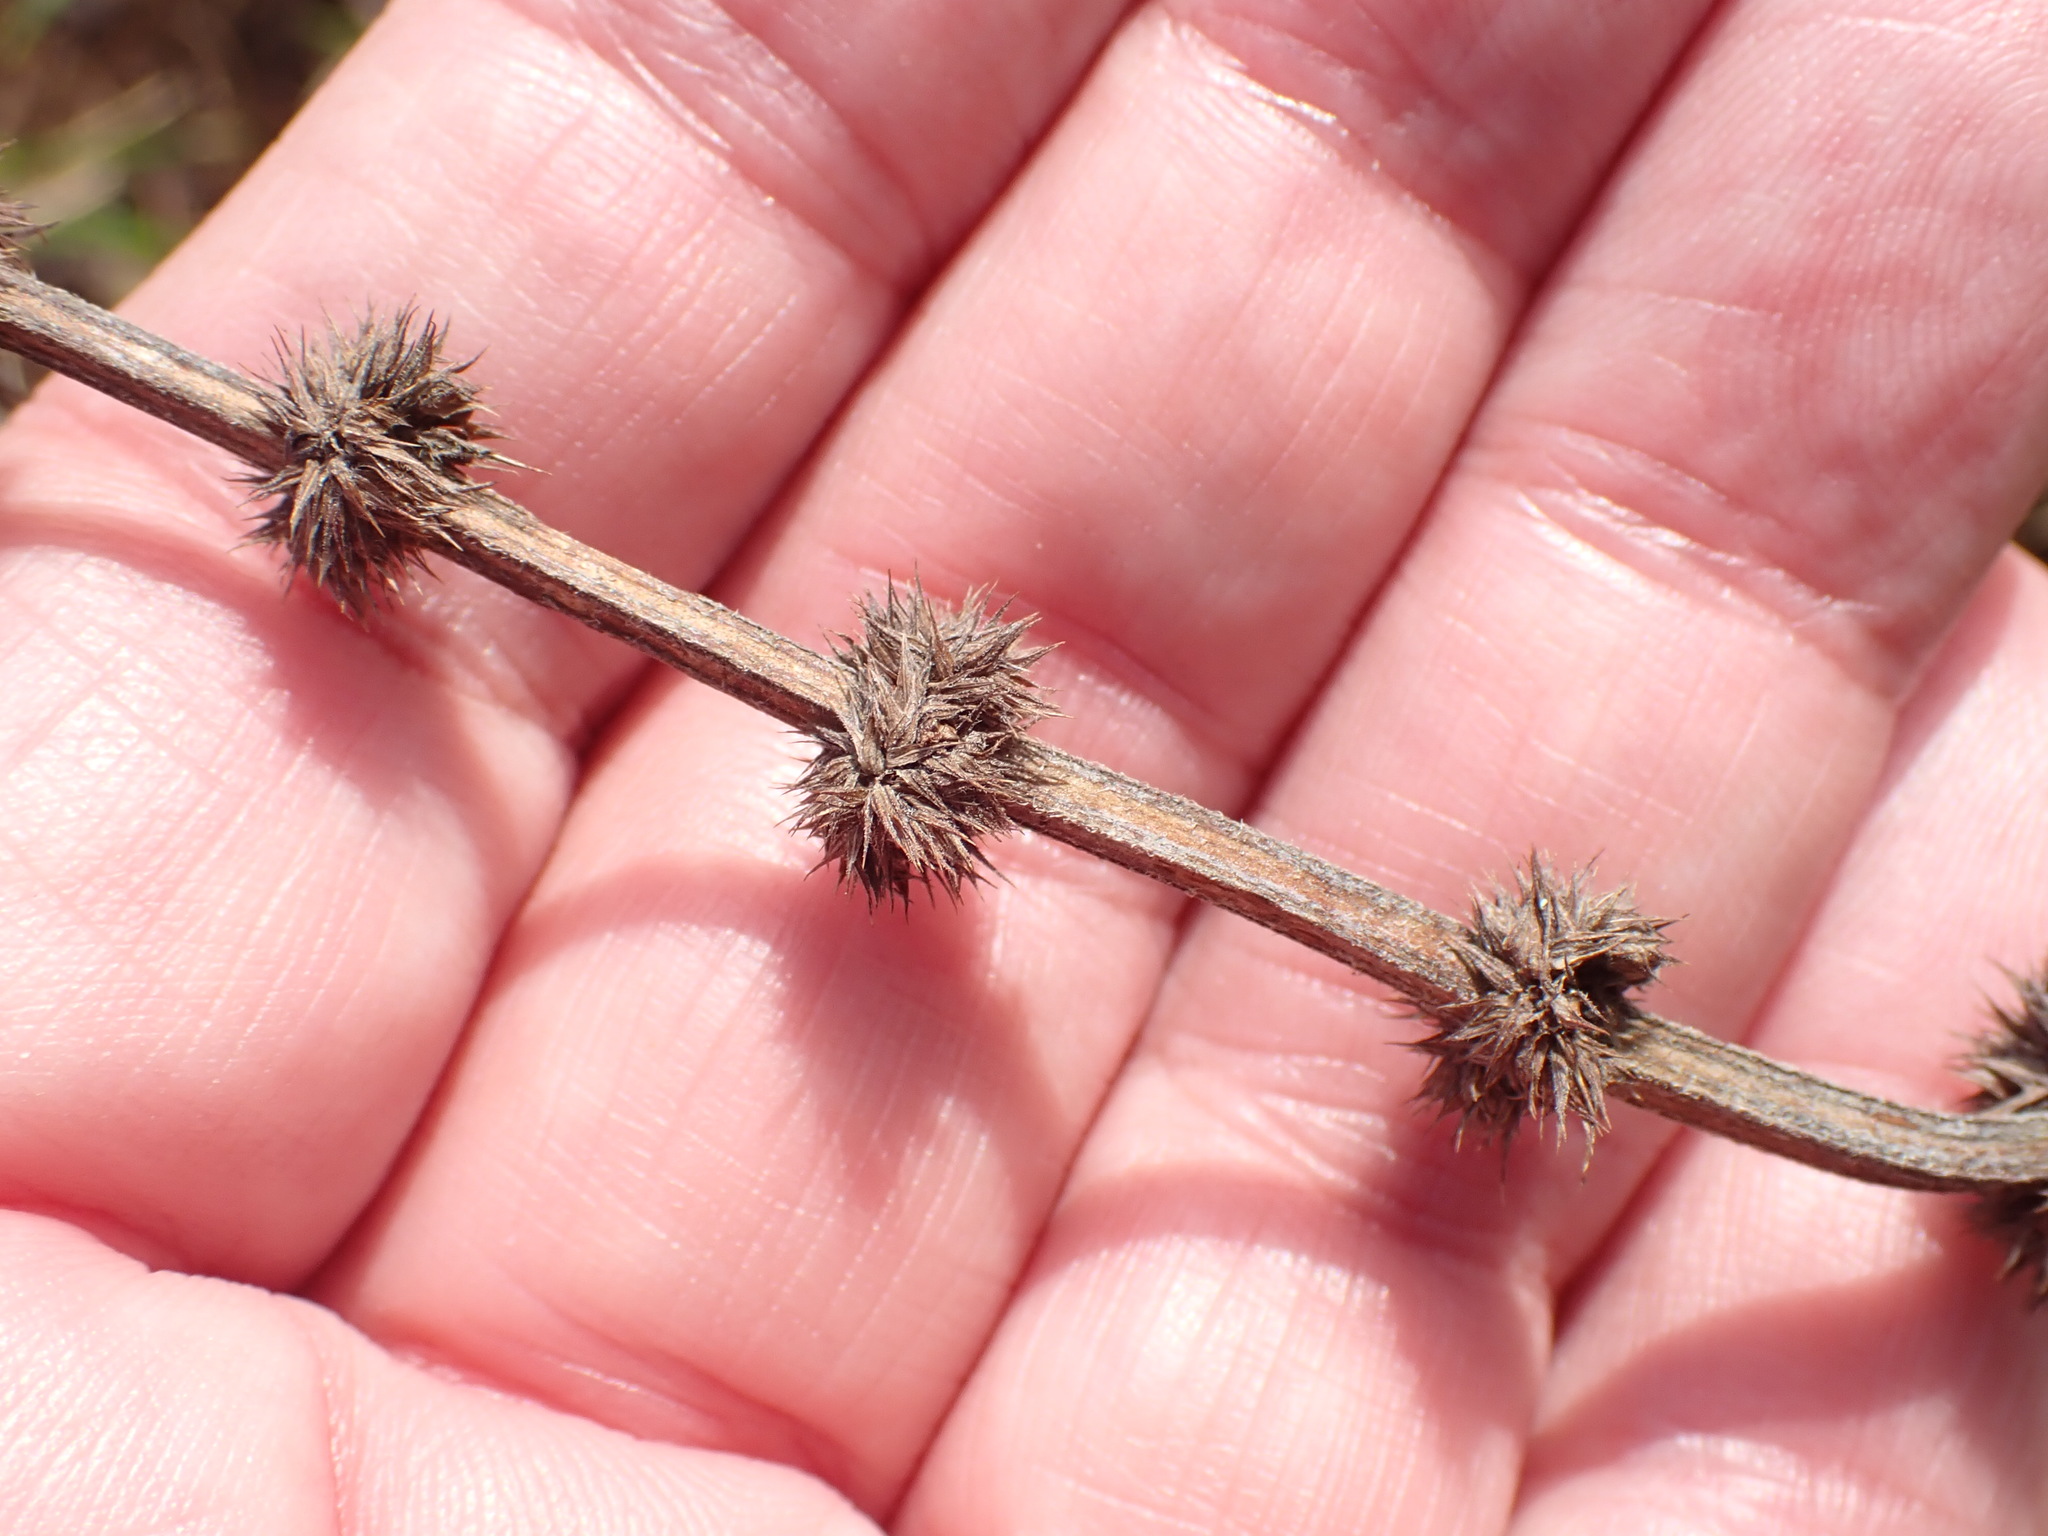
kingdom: Plantae
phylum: Tracheophyta
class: Magnoliopsida
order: Lamiales
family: Lamiaceae
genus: Lycopus
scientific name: Lycopus europaeus
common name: European bugleweed
